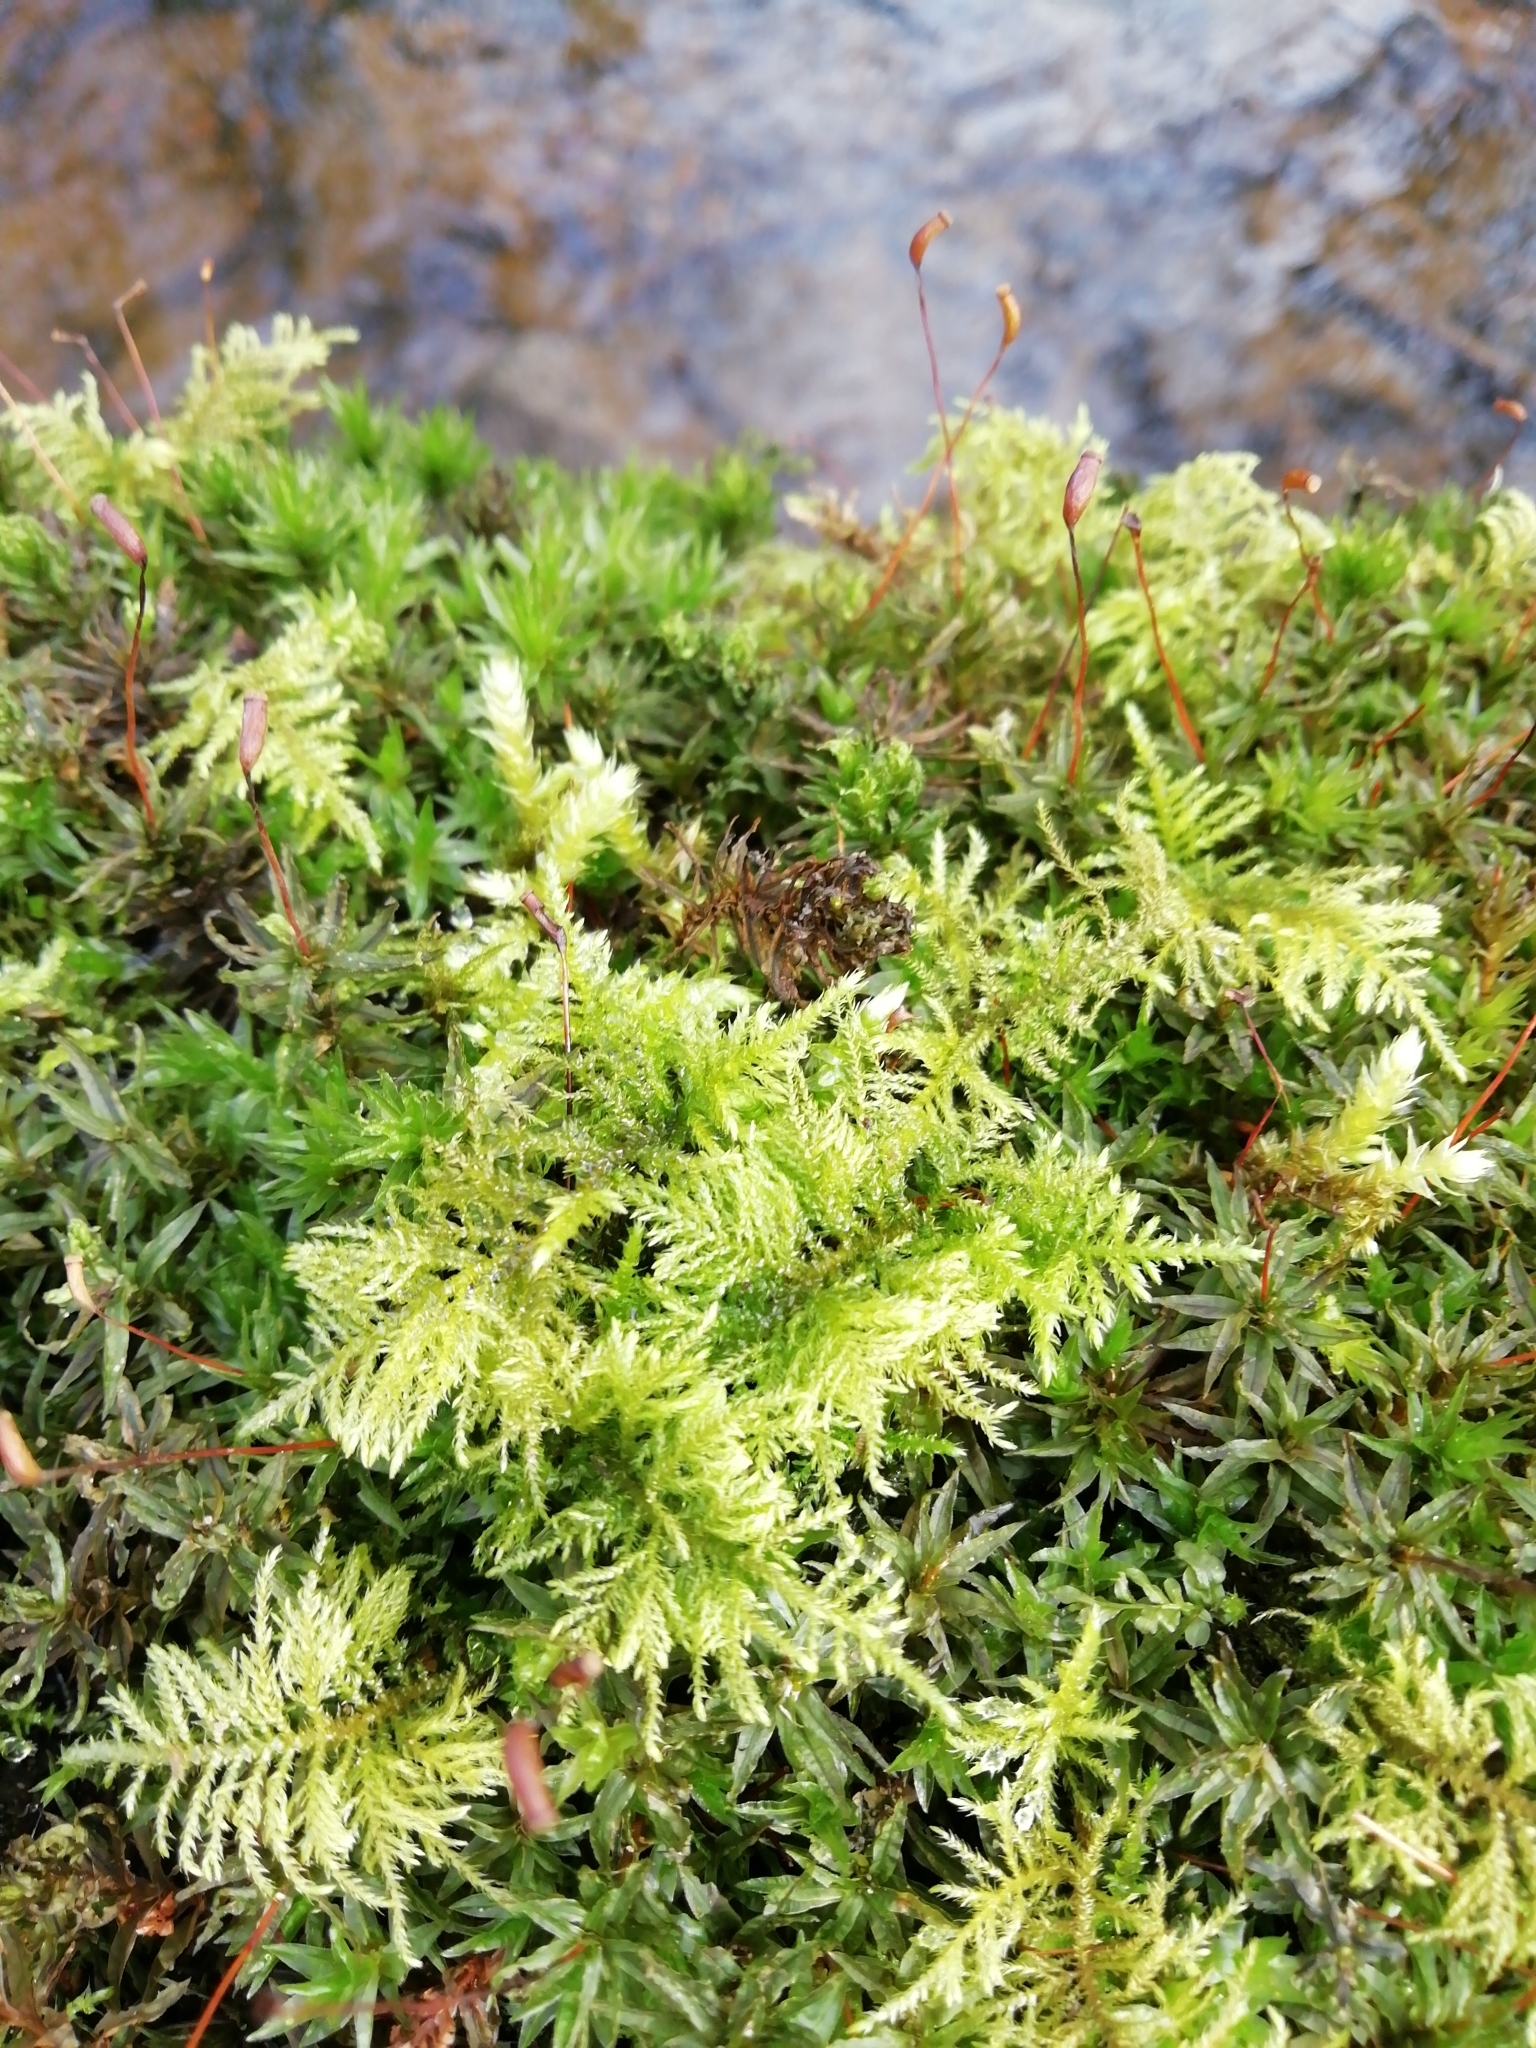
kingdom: Plantae
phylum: Bryophyta
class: Bryopsida
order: Hypnales
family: Thuidiaceae
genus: Thuidium
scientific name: Thuidium tamariscinum
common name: Common tamarisk-moss
